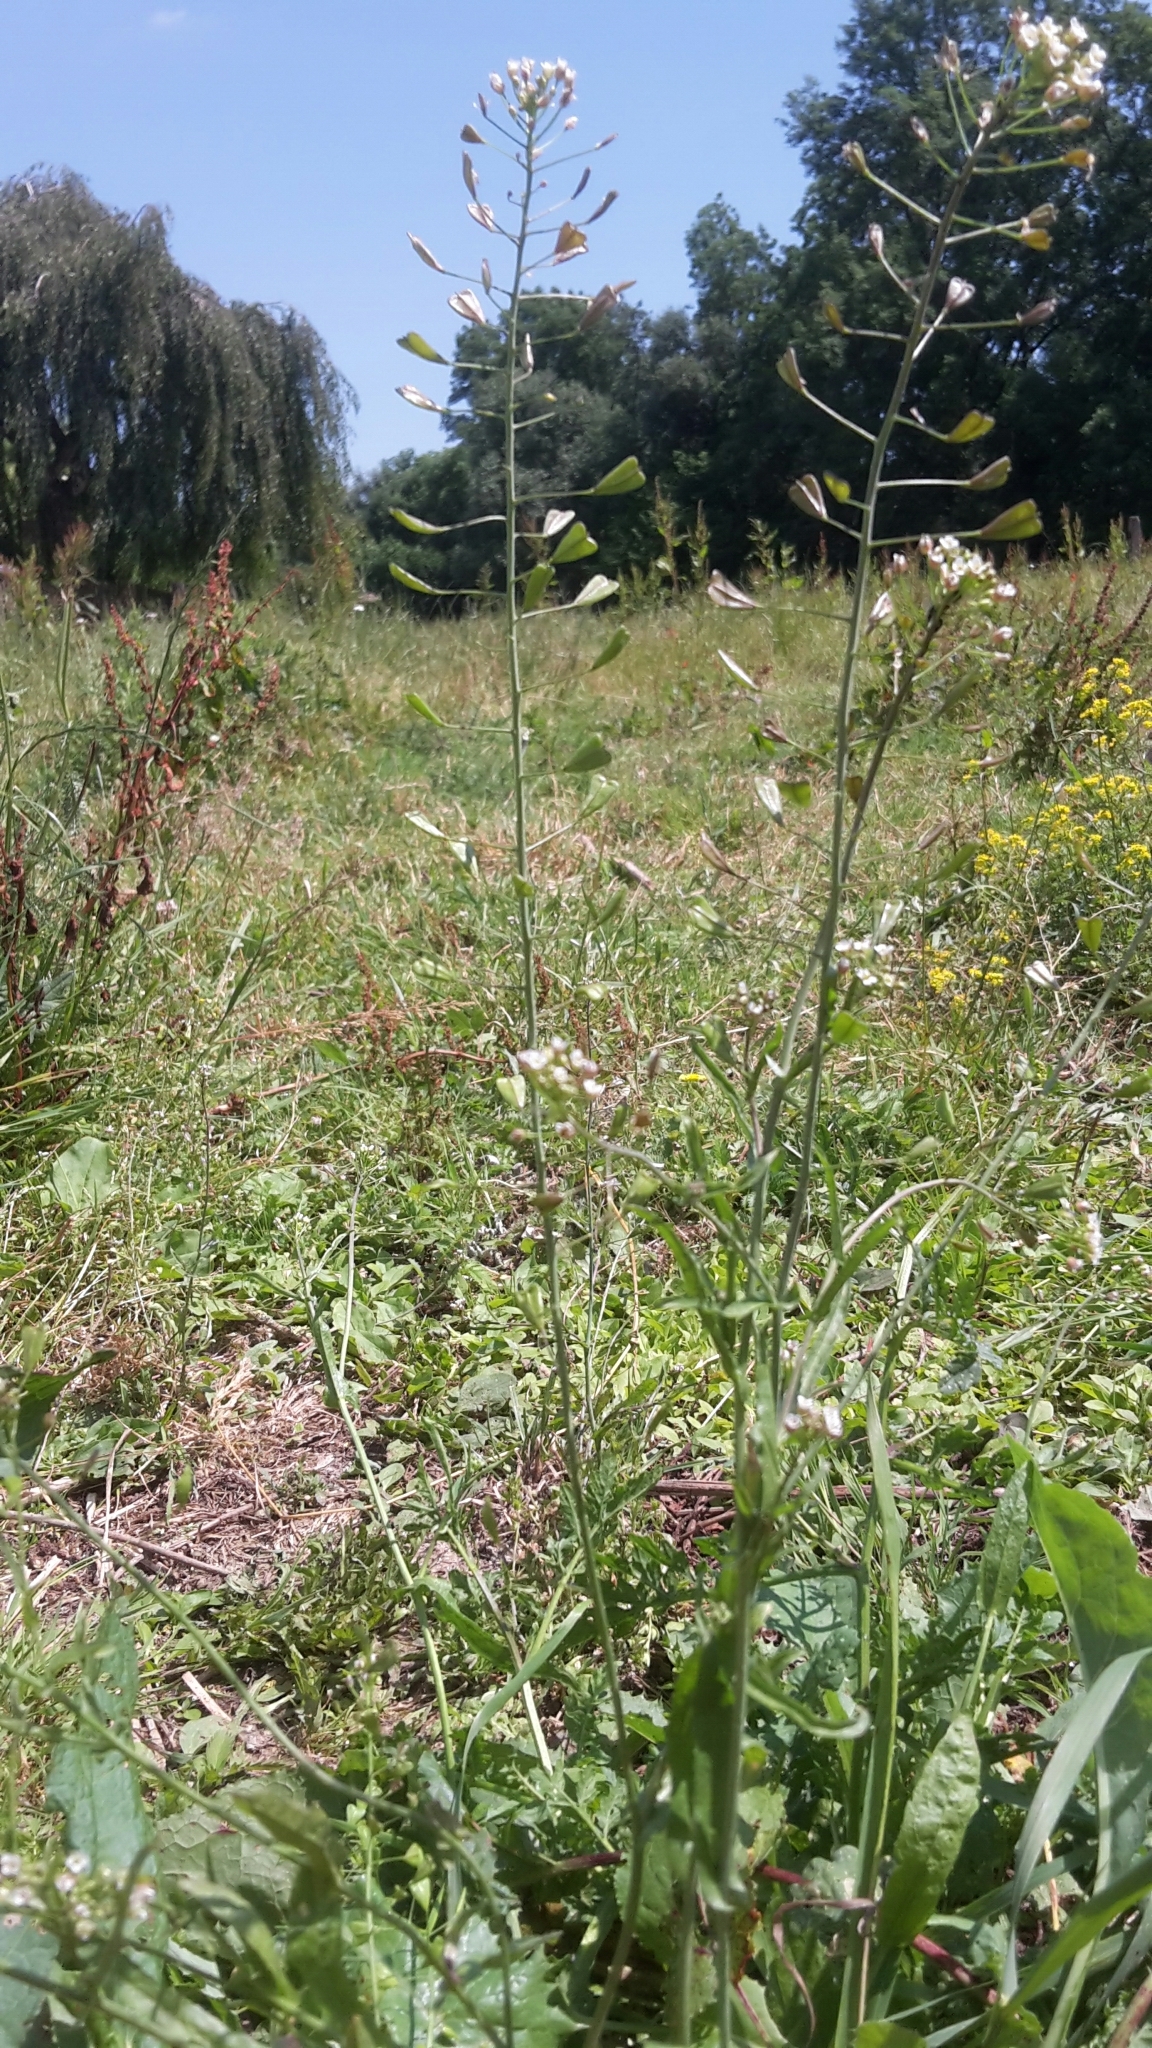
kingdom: Plantae
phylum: Tracheophyta
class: Magnoliopsida
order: Brassicales
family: Brassicaceae
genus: Capsella
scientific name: Capsella bursa-pastoris
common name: Shepherd's purse
